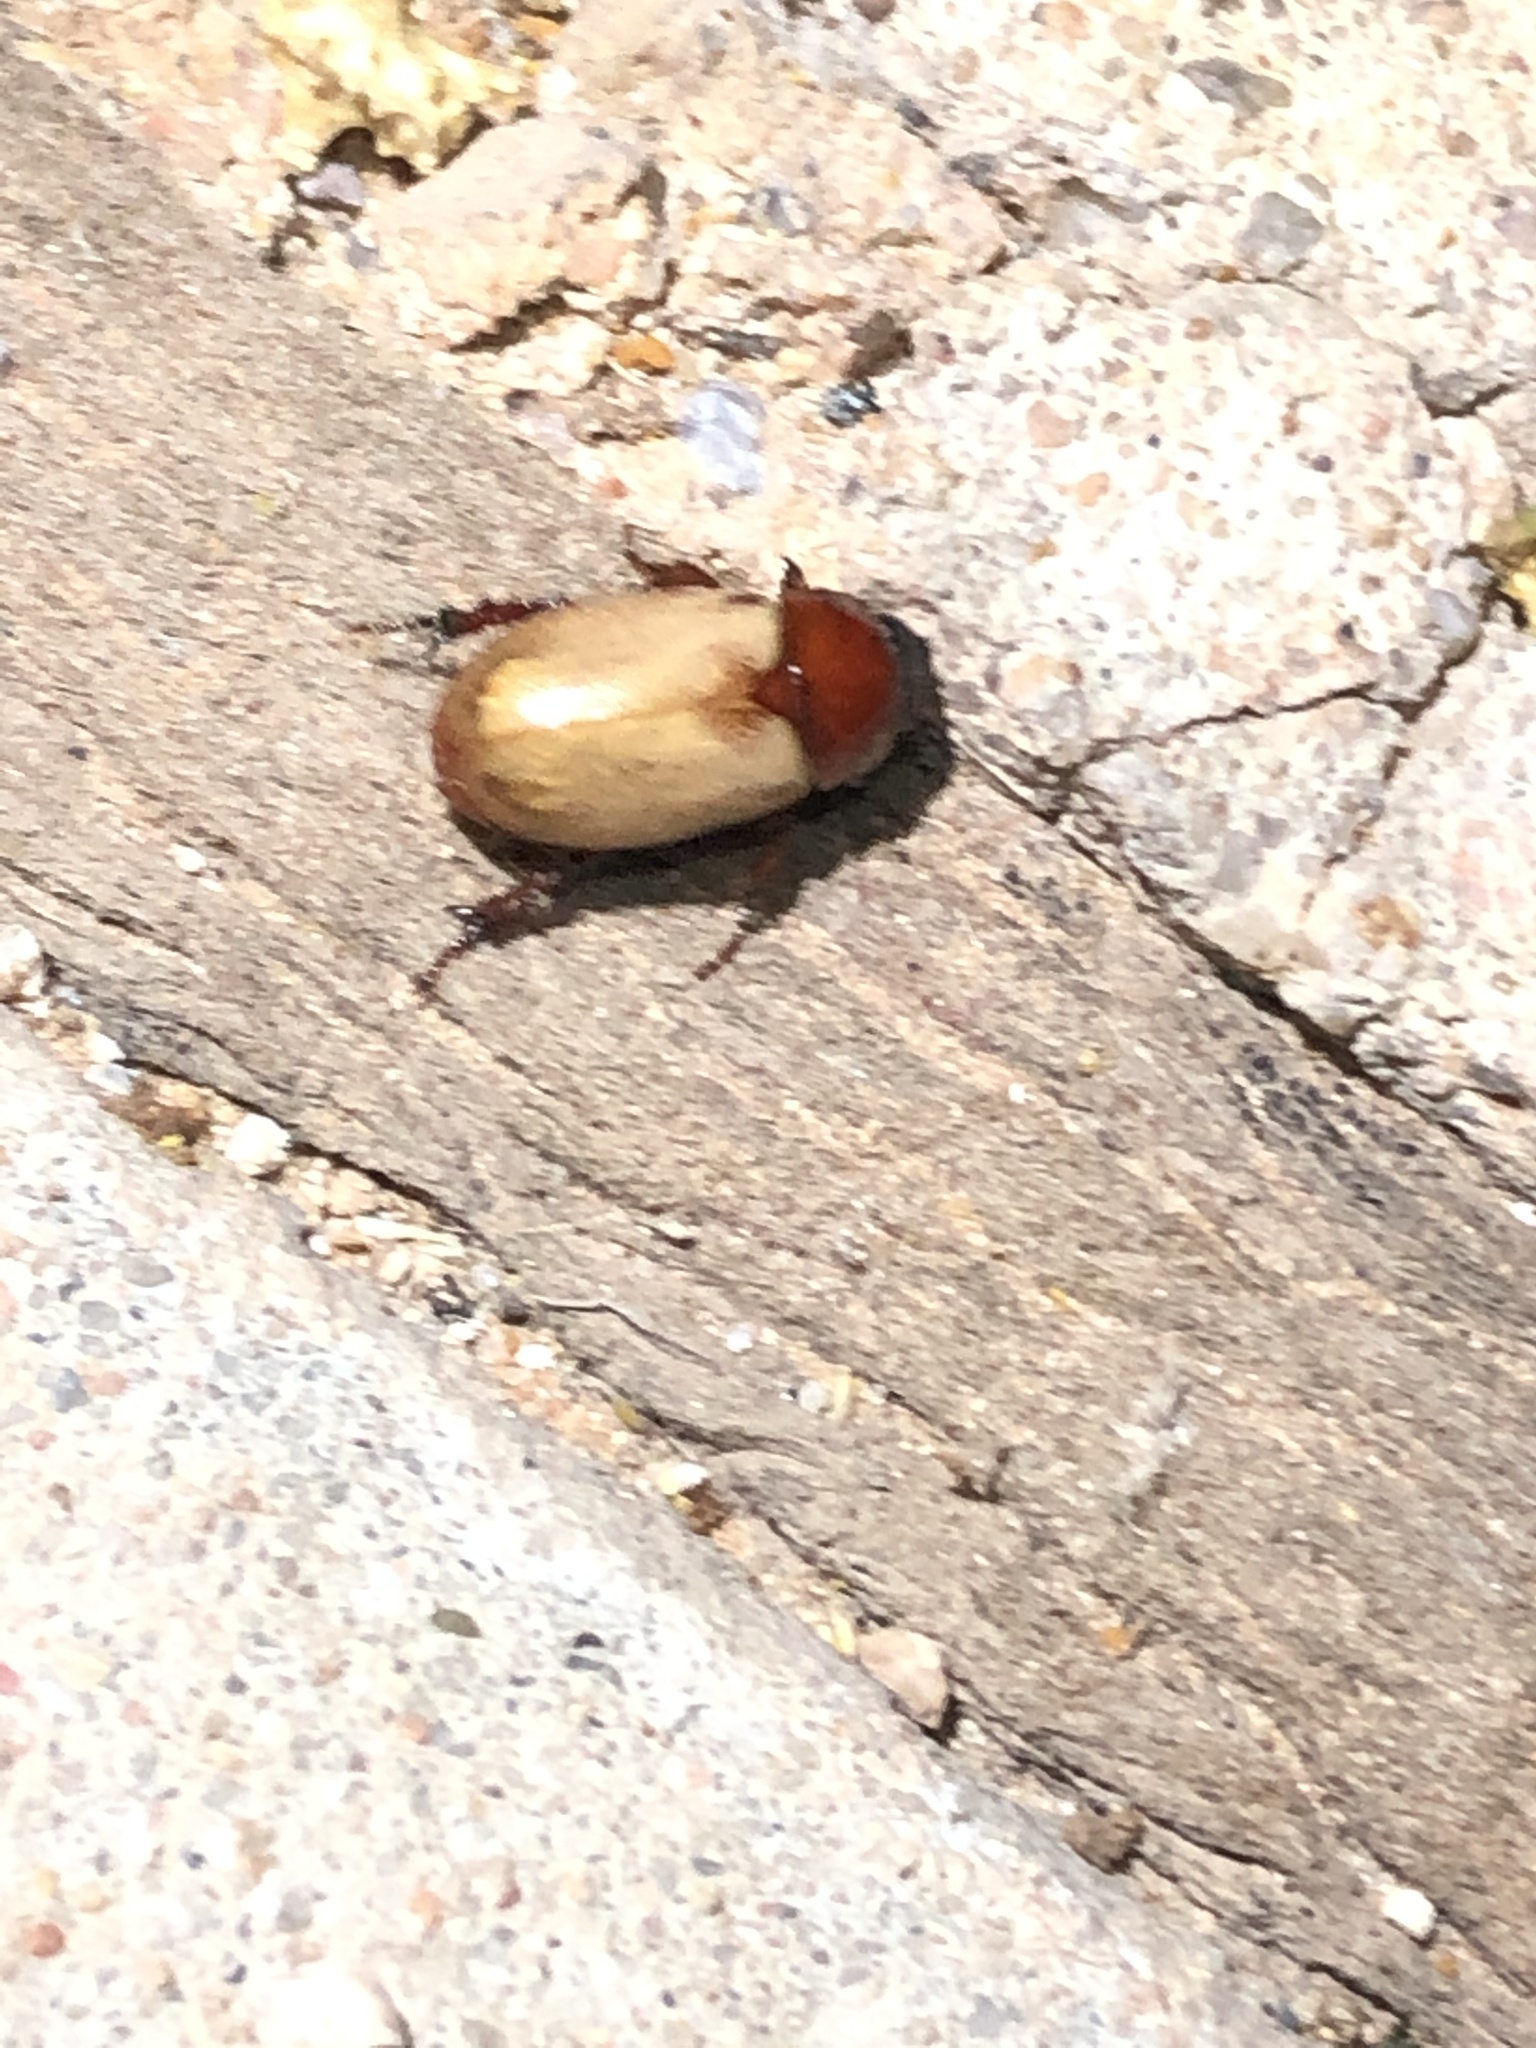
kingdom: Animalia
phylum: Arthropoda
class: Insecta
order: Coleoptera
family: Scarabaeidae
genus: Cyclocephala
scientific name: Cyclocephala melanocephala
